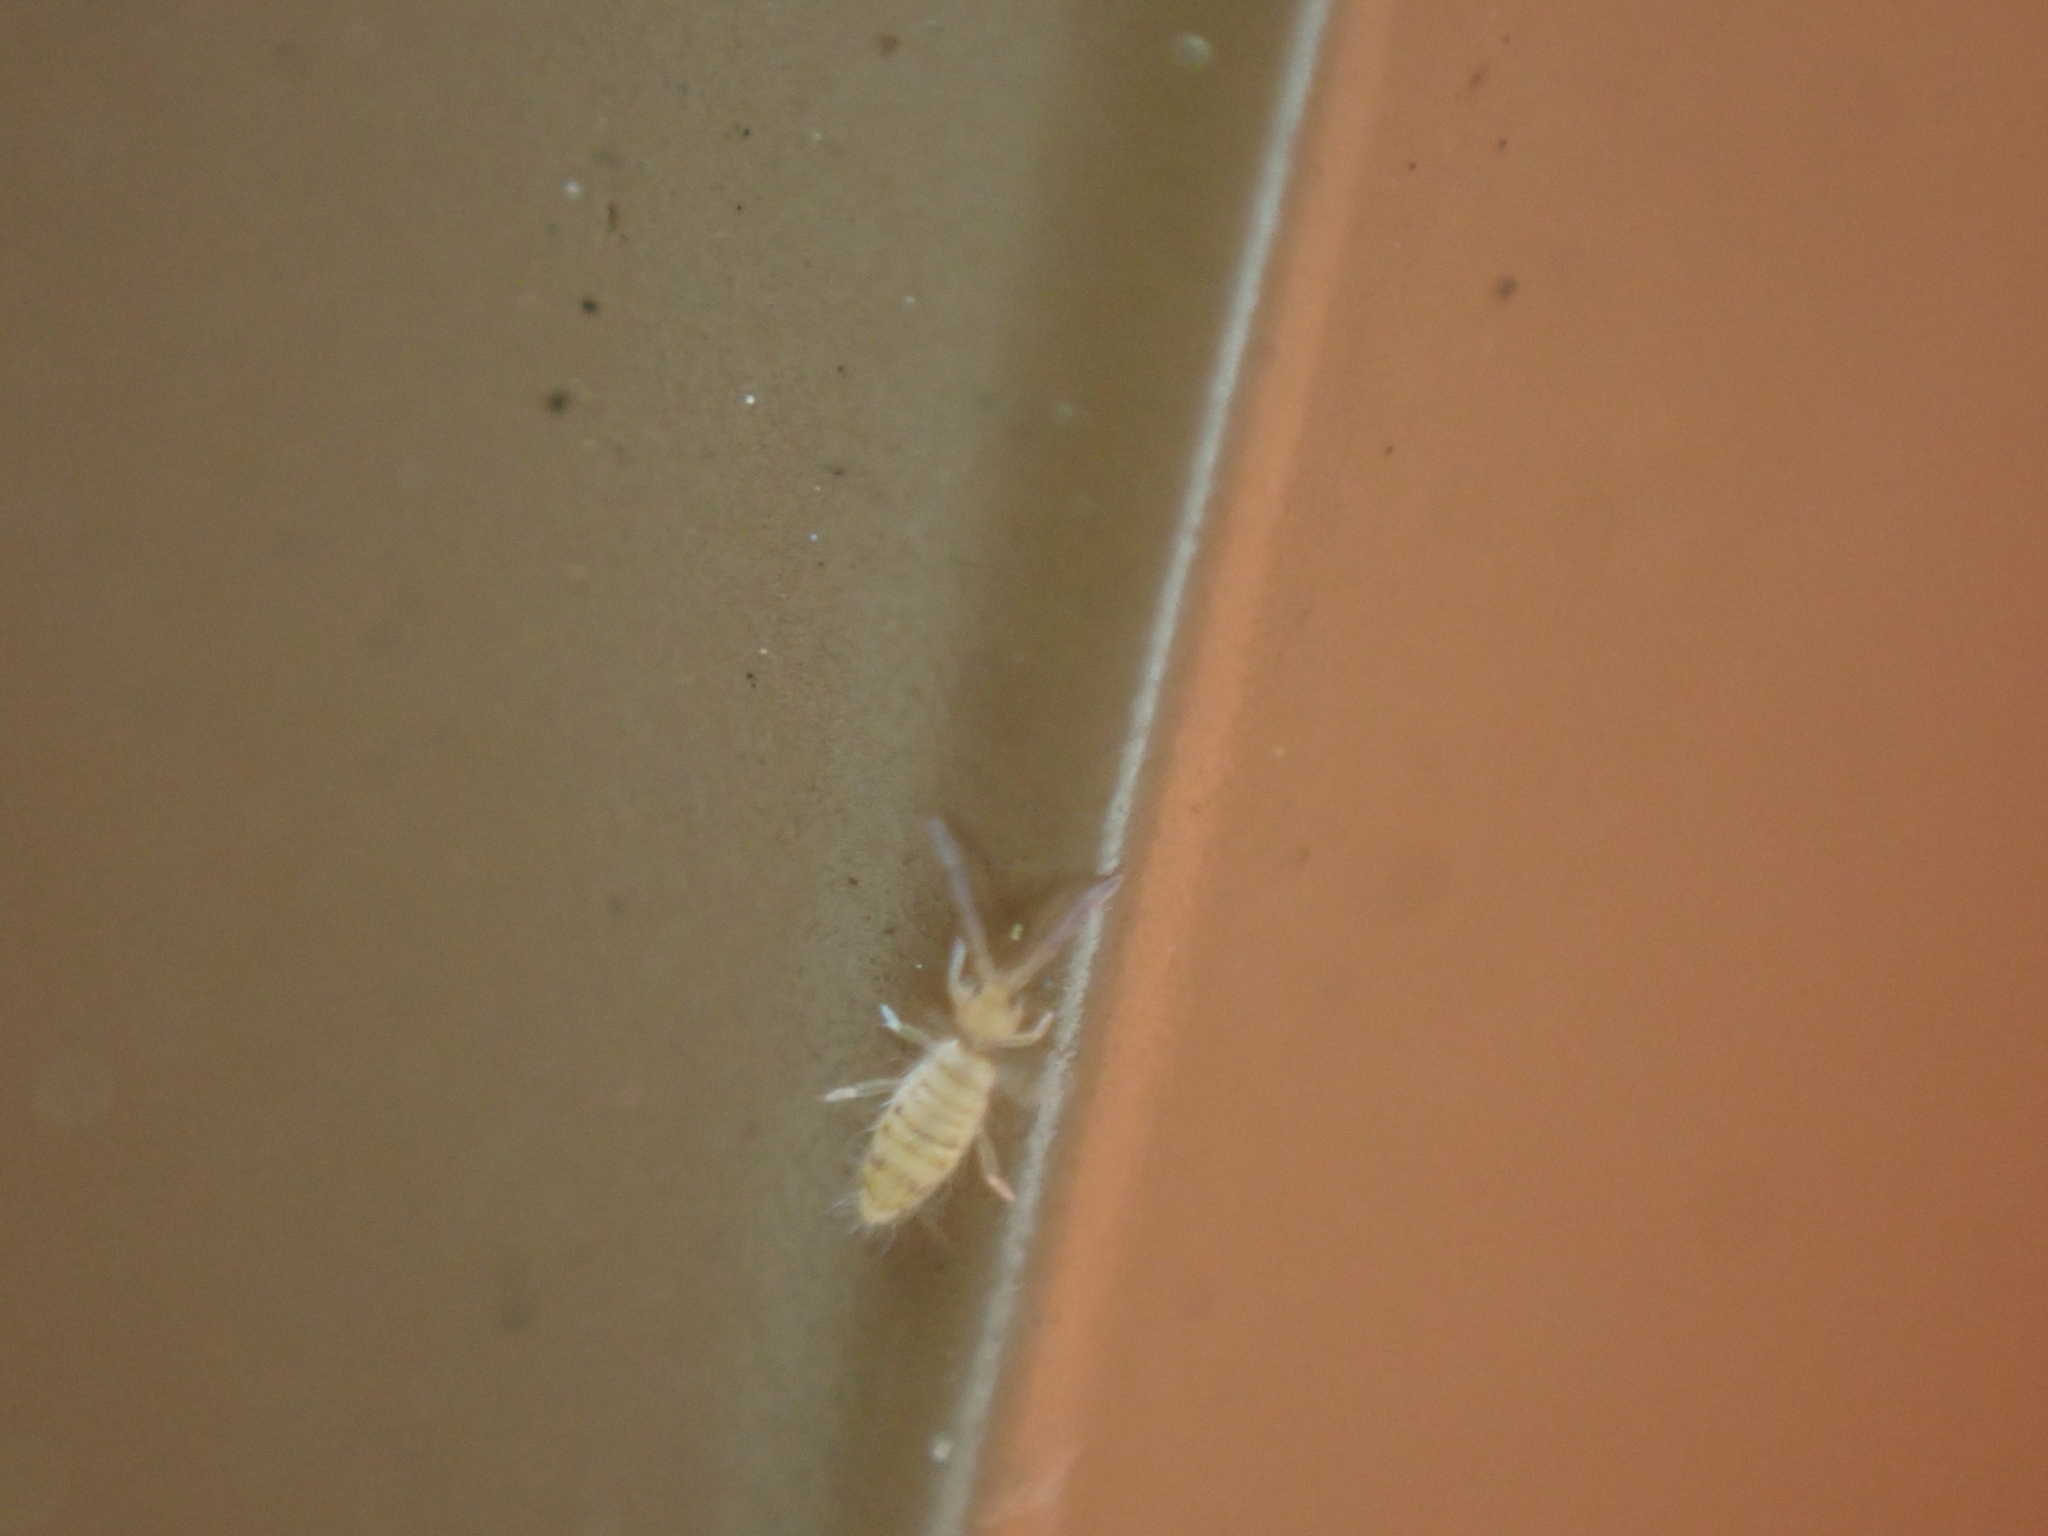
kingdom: Animalia
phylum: Arthropoda
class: Collembola
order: Entomobryomorpha
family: Entomobryidae
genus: Entomobrya
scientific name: Entomobrya atrocincta
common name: Springtail
